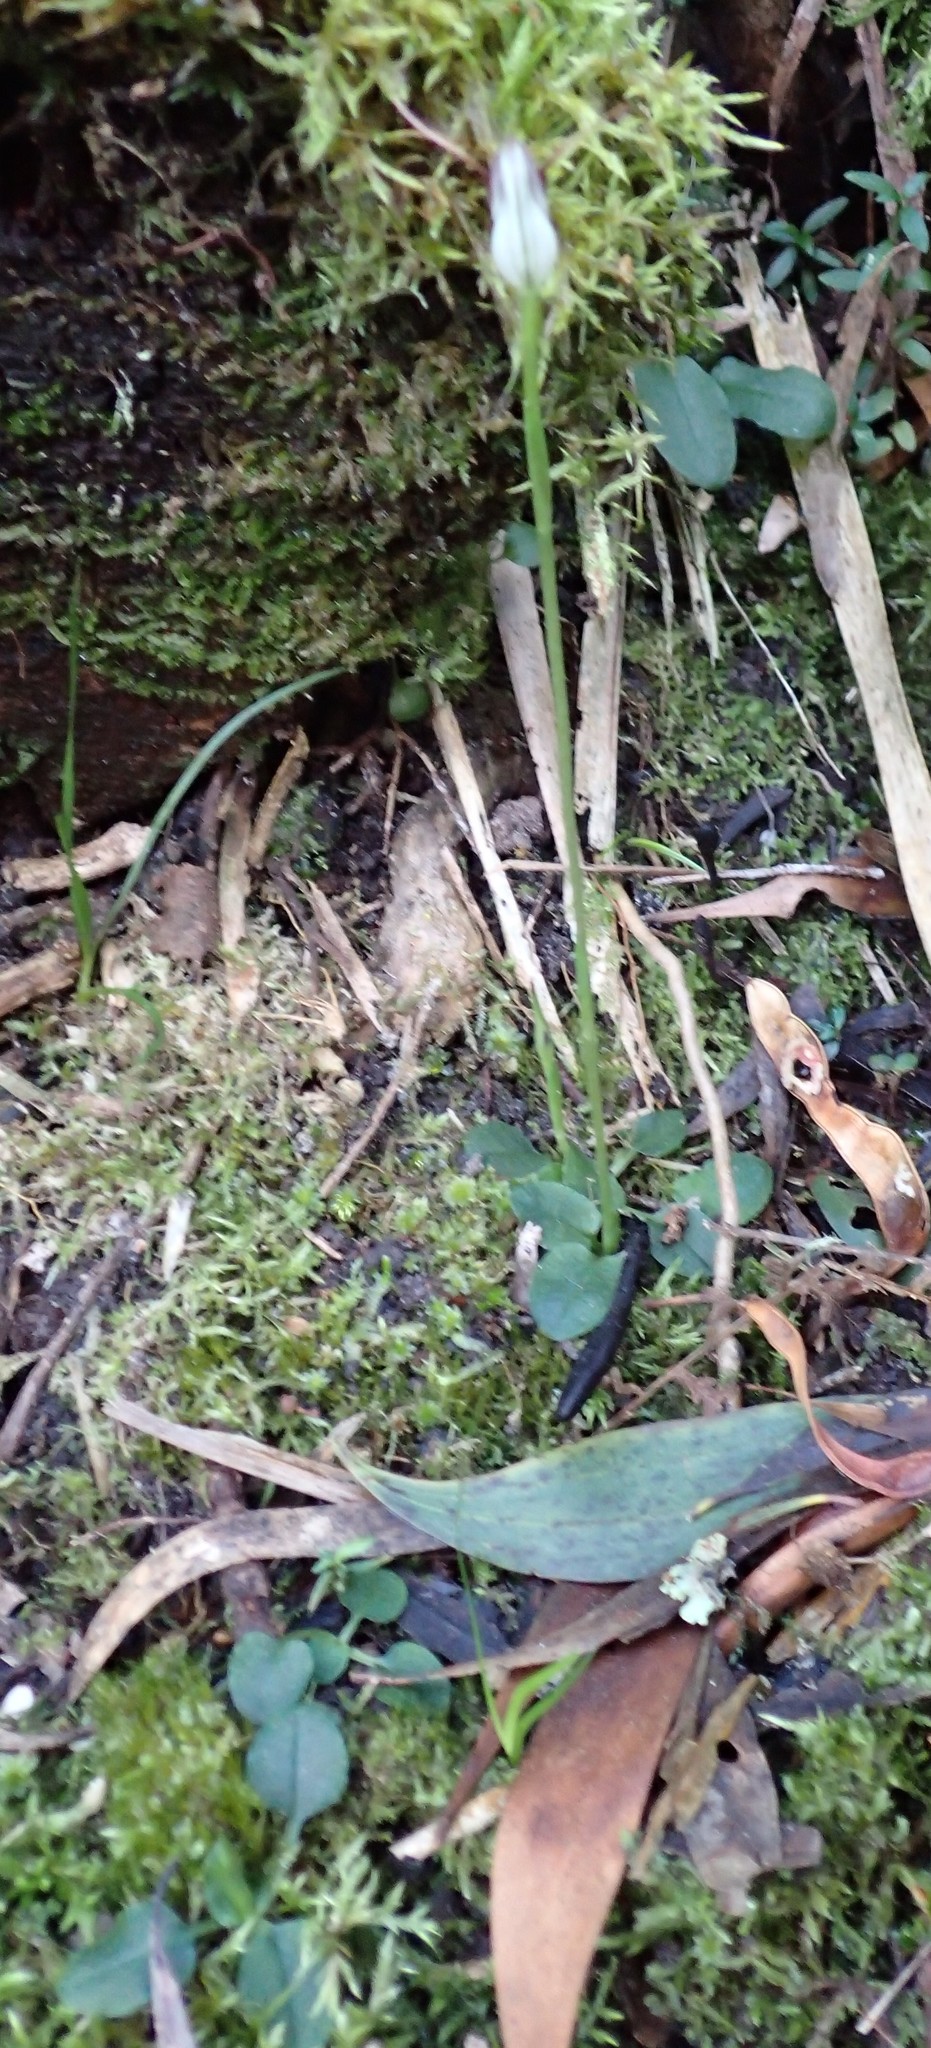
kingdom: Plantae
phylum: Tracheophyta
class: Liliopsida
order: Asparagales
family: Orchidaceae
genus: Pterostylis
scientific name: Pterostylis pedunculata
